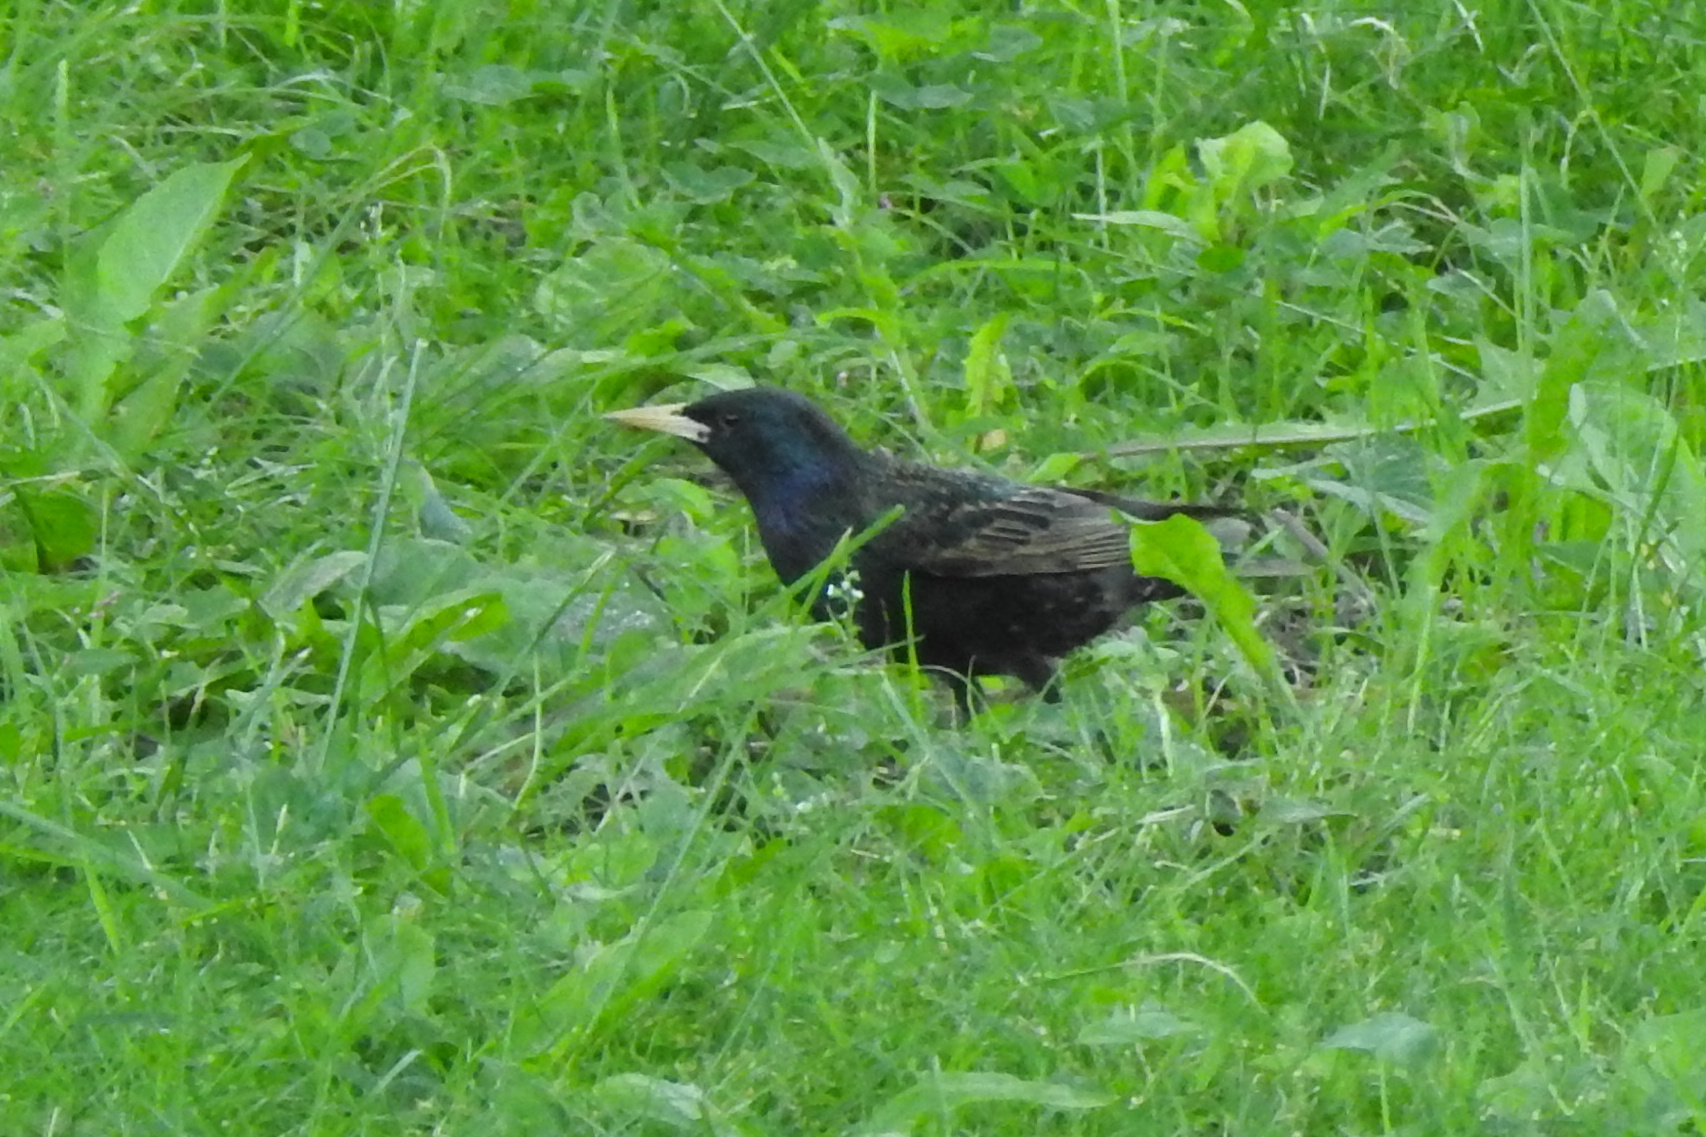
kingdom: Animalia
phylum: Chordata
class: Aves
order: Passeriformes
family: Sturnidae
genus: Sturnus
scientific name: Sturnus vulgaris
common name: Common starling
